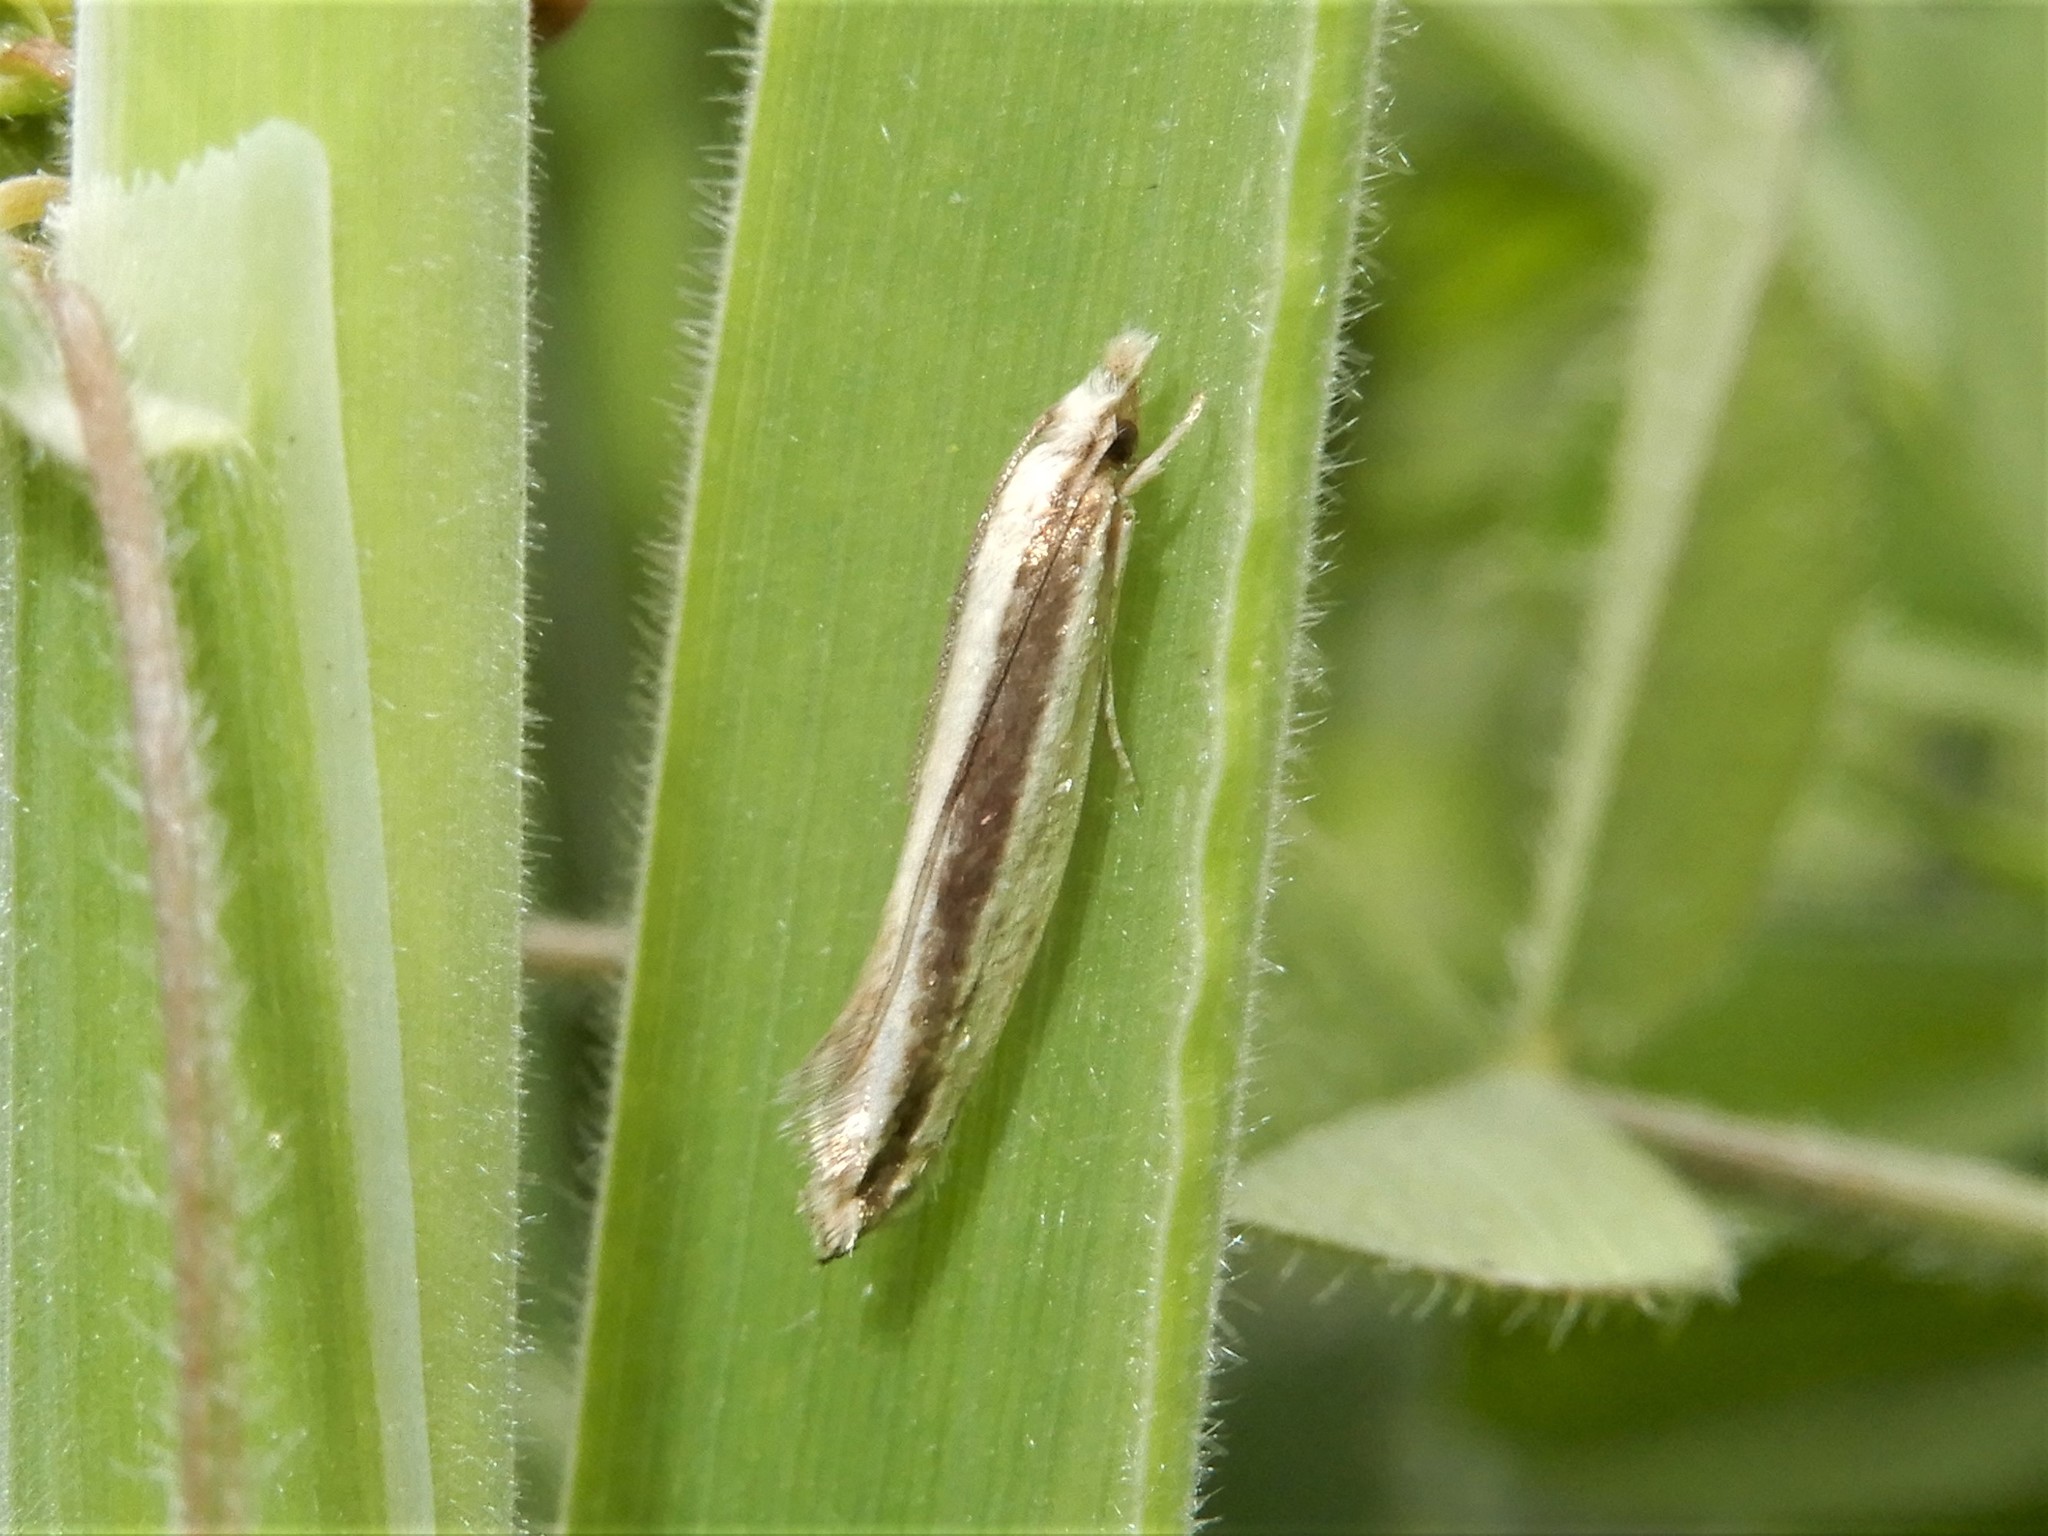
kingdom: Animalia
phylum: Arthropoda
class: Insecta
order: Lepidoptera
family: Tineidae
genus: Erechthias
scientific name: Erechthias stilbella
